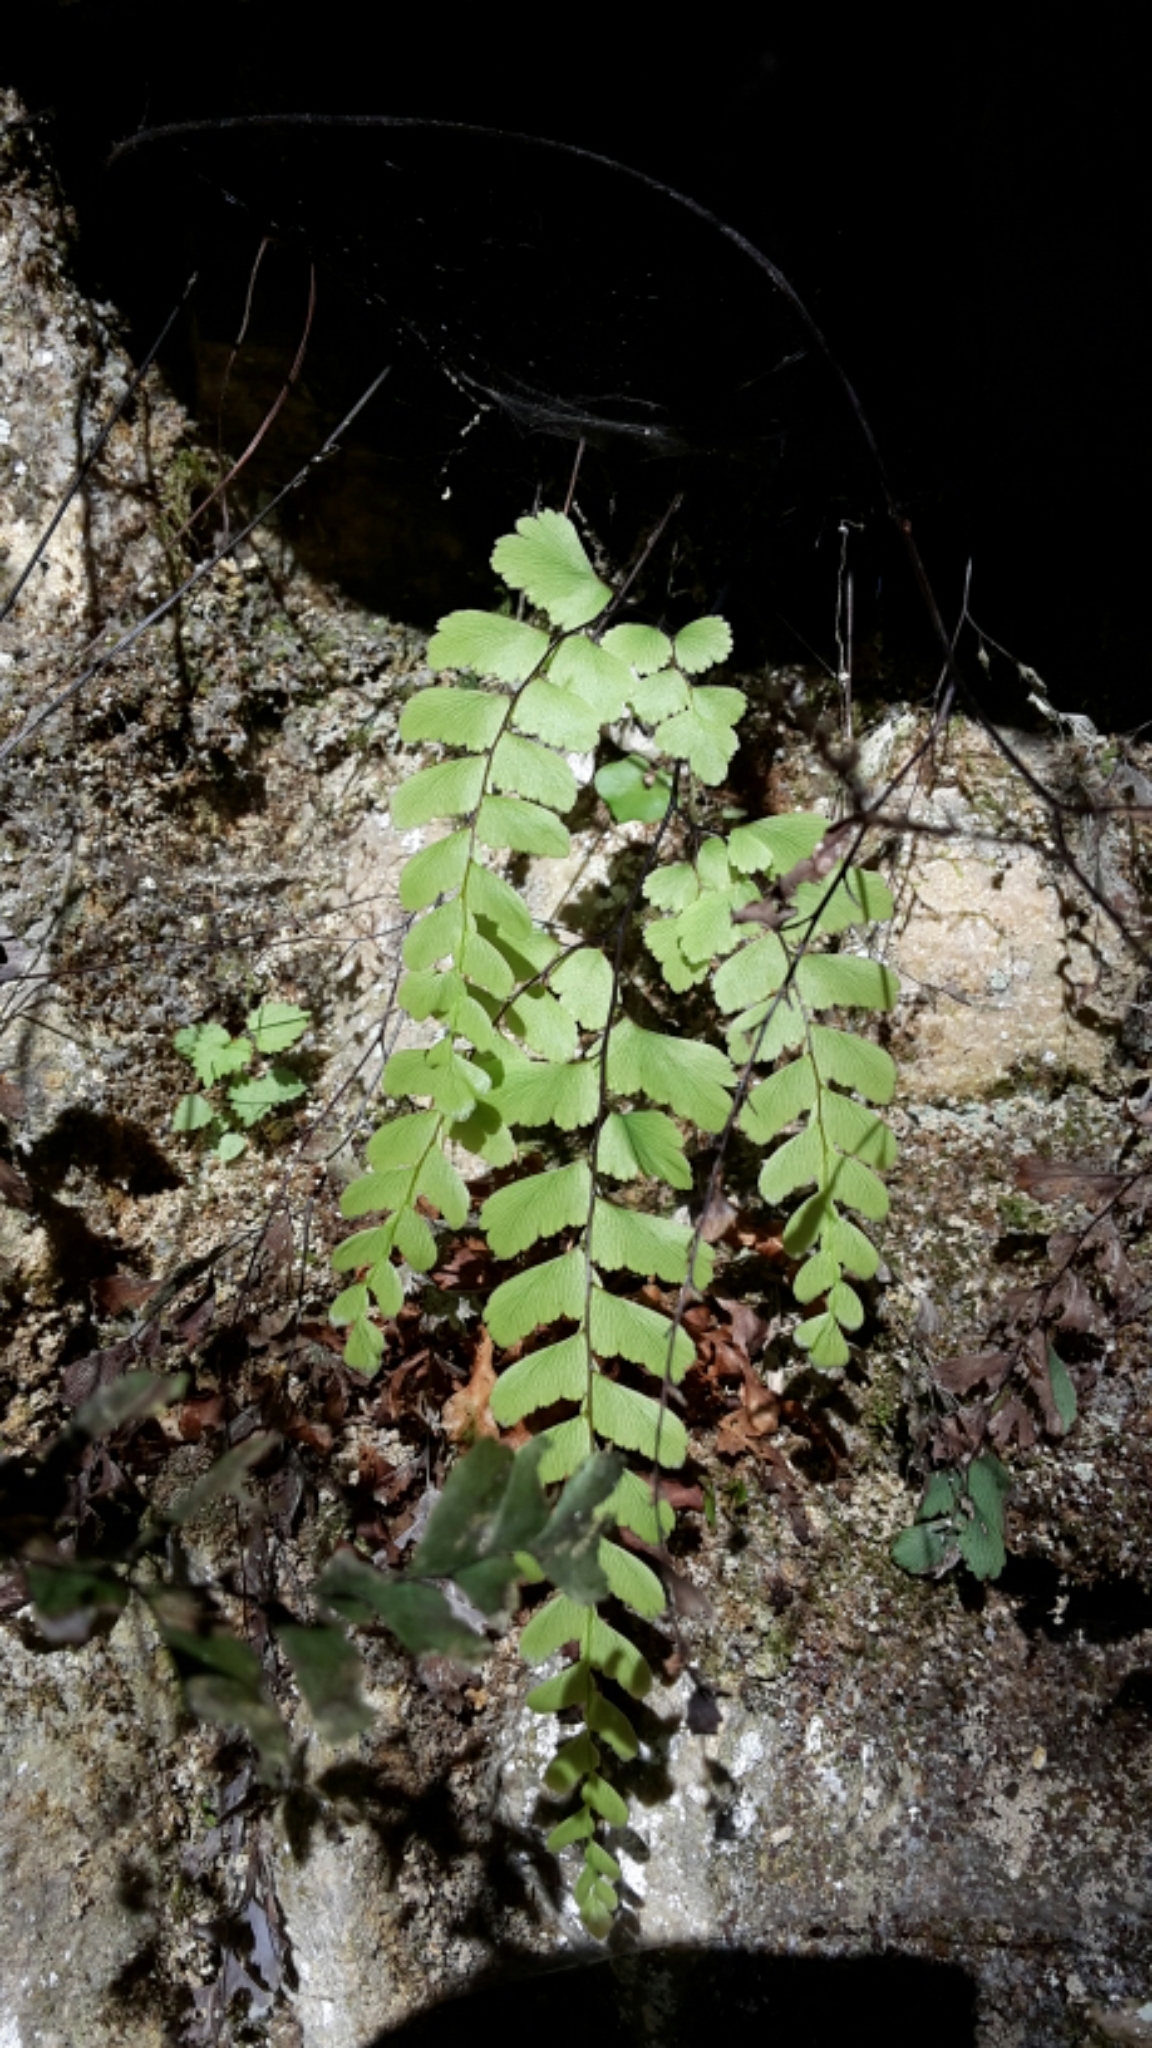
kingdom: Plantae
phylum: Tracheophyta
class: Polypodiopsida
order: Polypodiales
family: Pteridaceae
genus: Adiantum
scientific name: Adiantum cunninghamii
